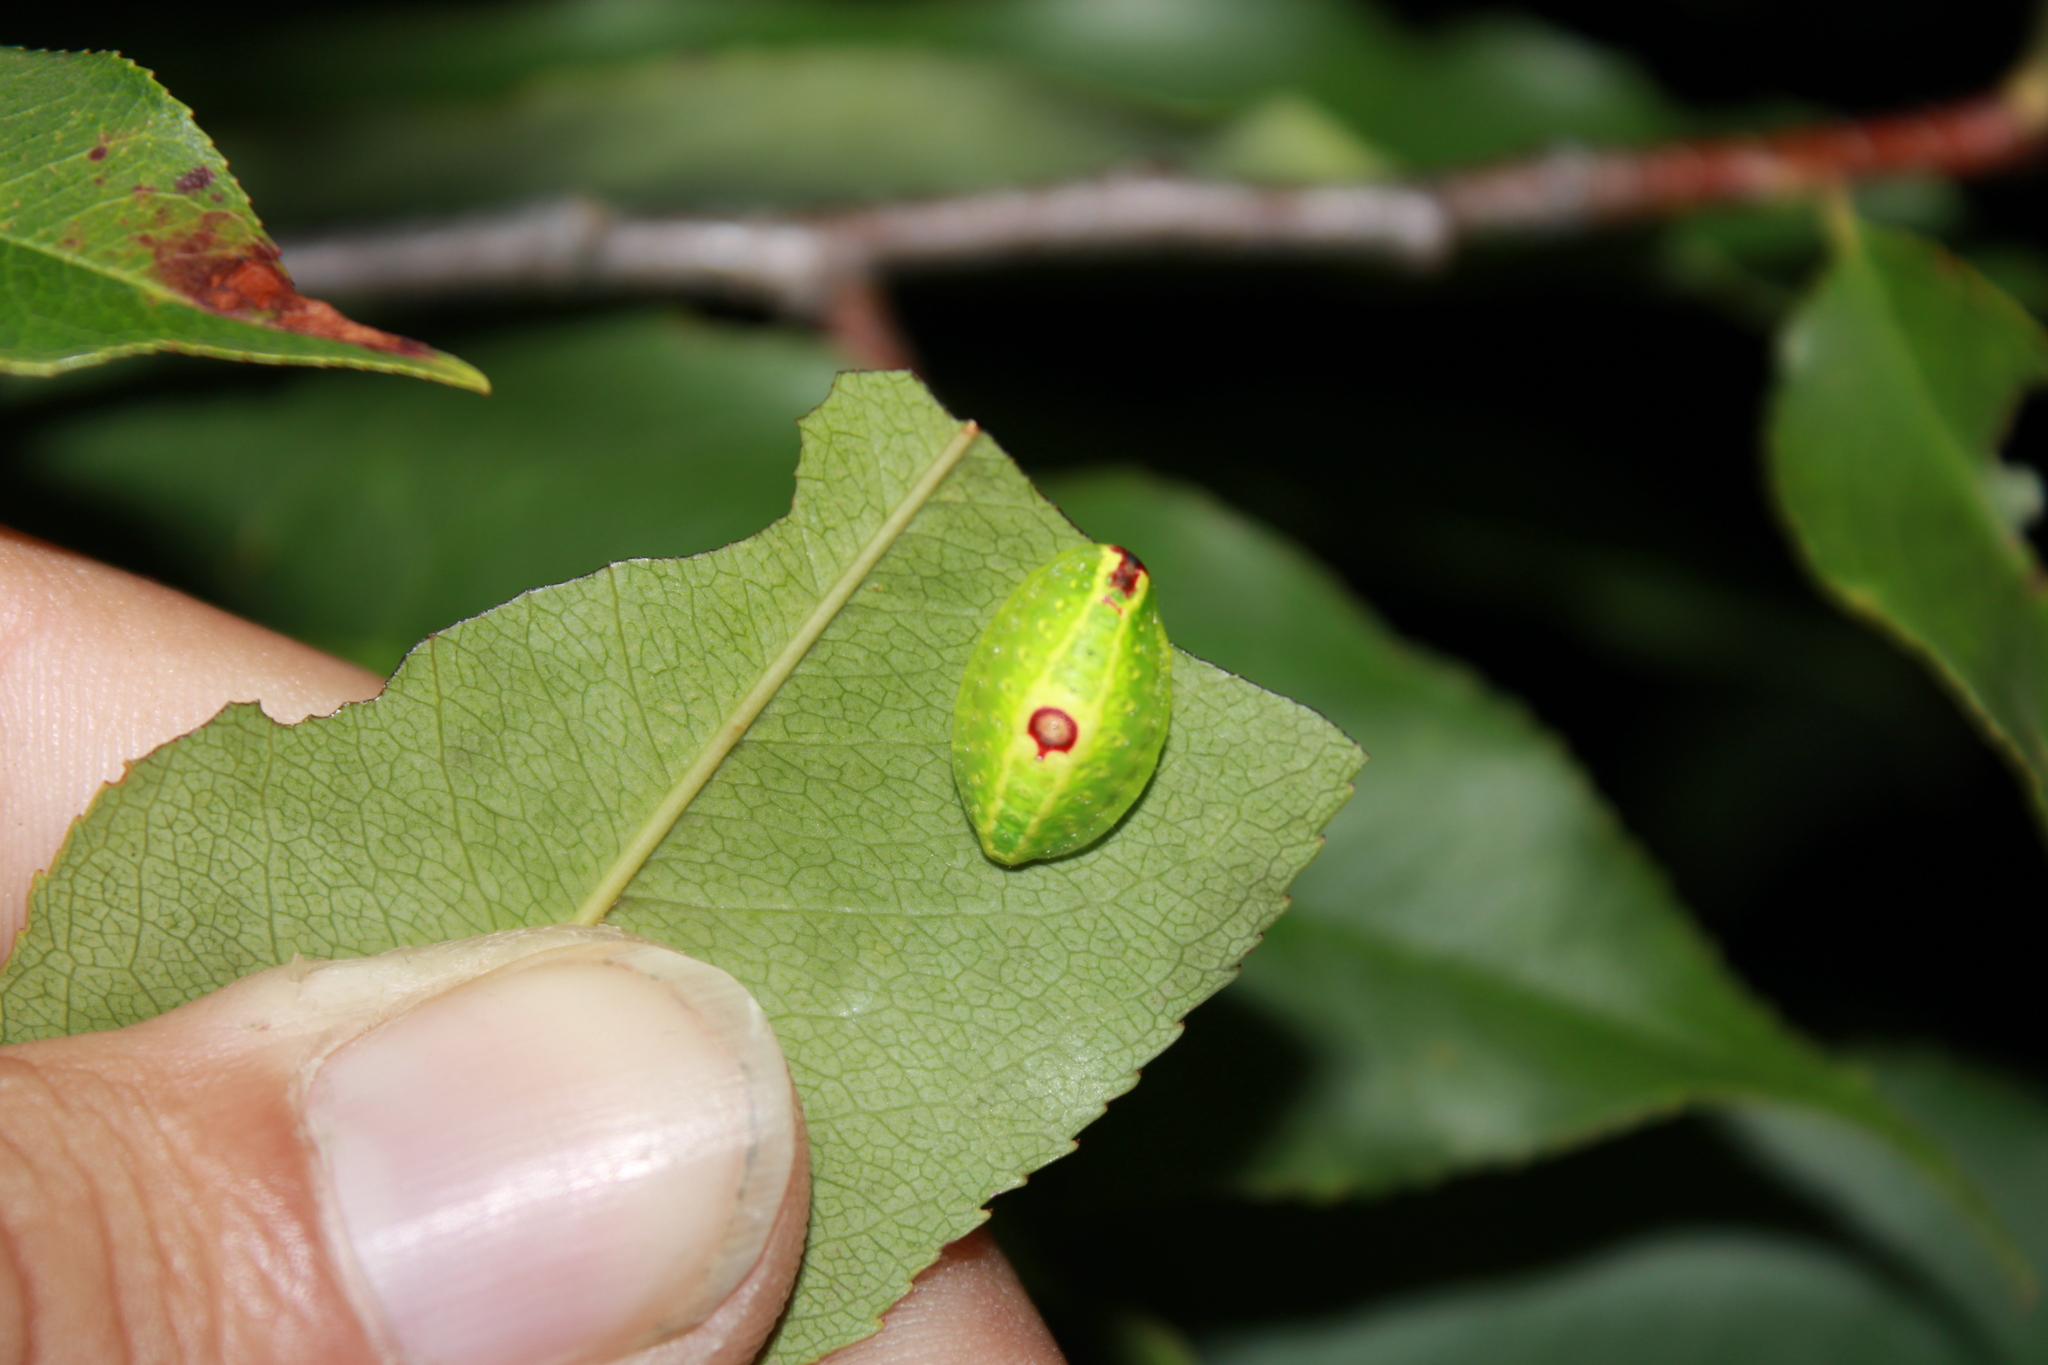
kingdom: Animalia
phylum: Arthropoda
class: Insecta
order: Lepidoptera
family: Limacodidae
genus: Tortricidia
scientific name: Tortricidia flexuosa
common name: Abbreviated button slug moth
